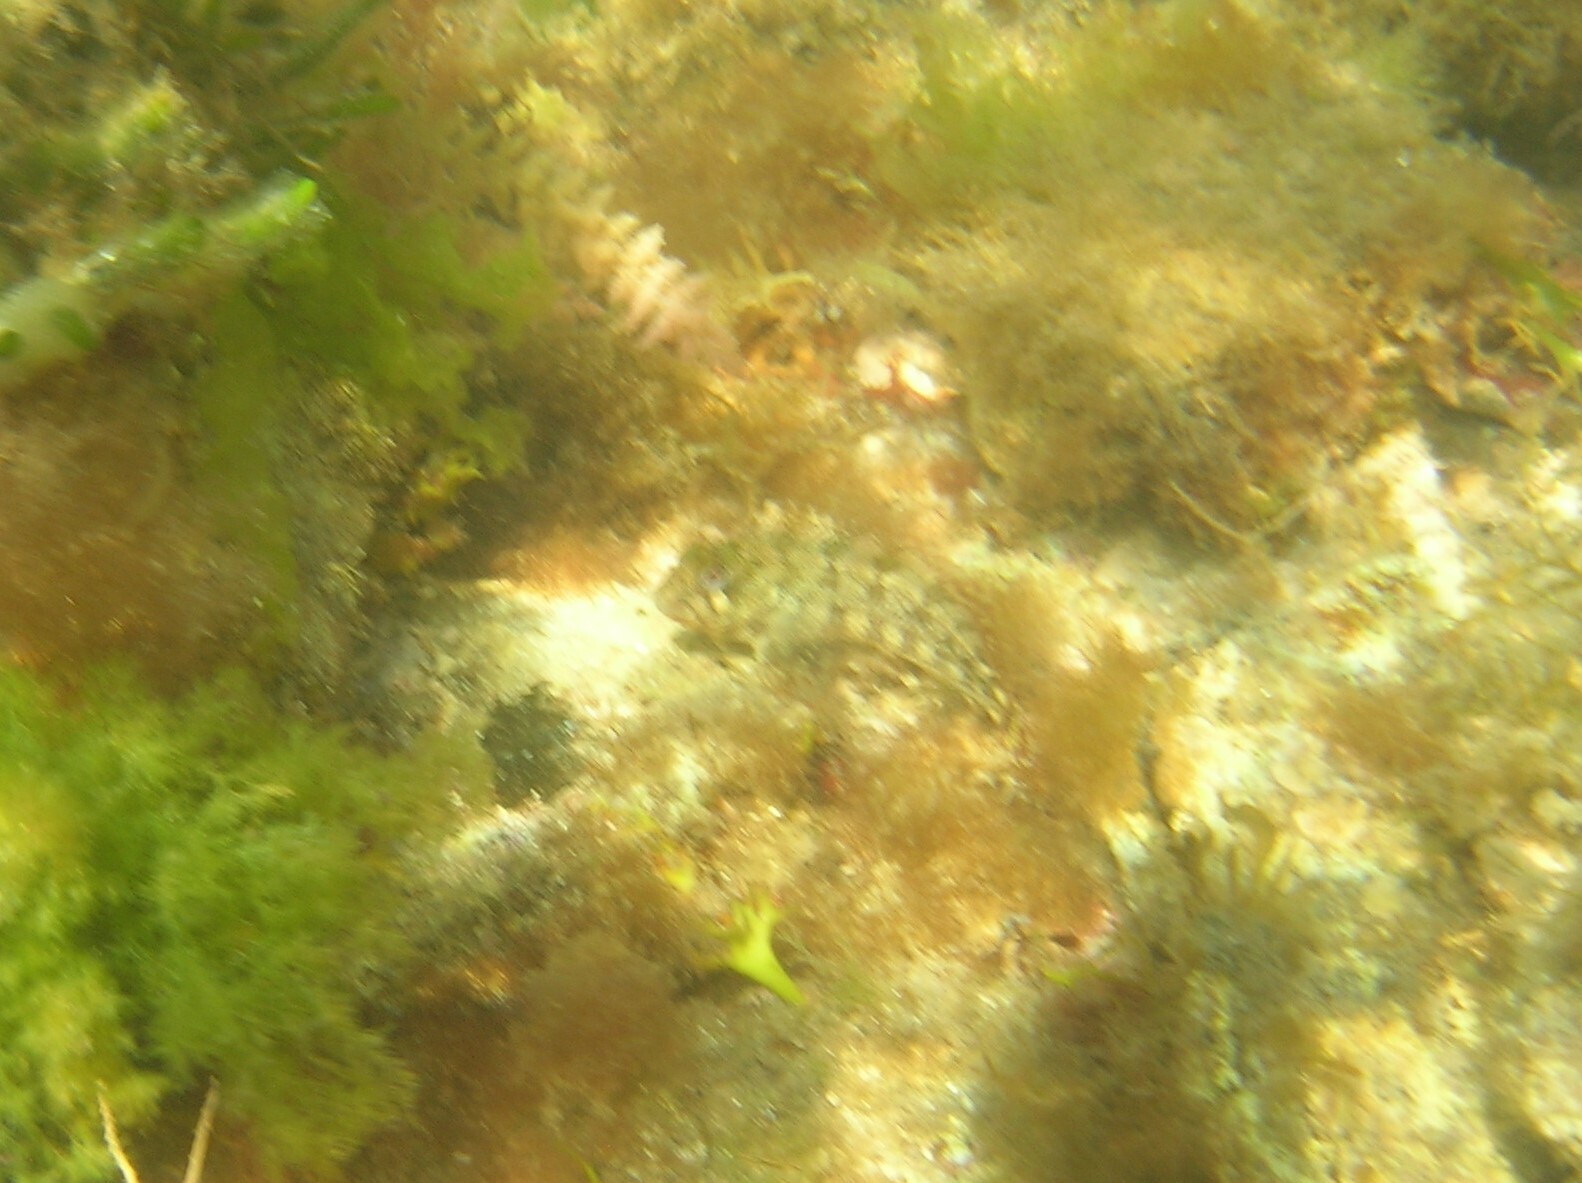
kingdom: Animalia
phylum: Chordata
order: Perciformes
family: Blenniidae
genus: Parablennius
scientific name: Parablennius gattorugine
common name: Tompot blenny
